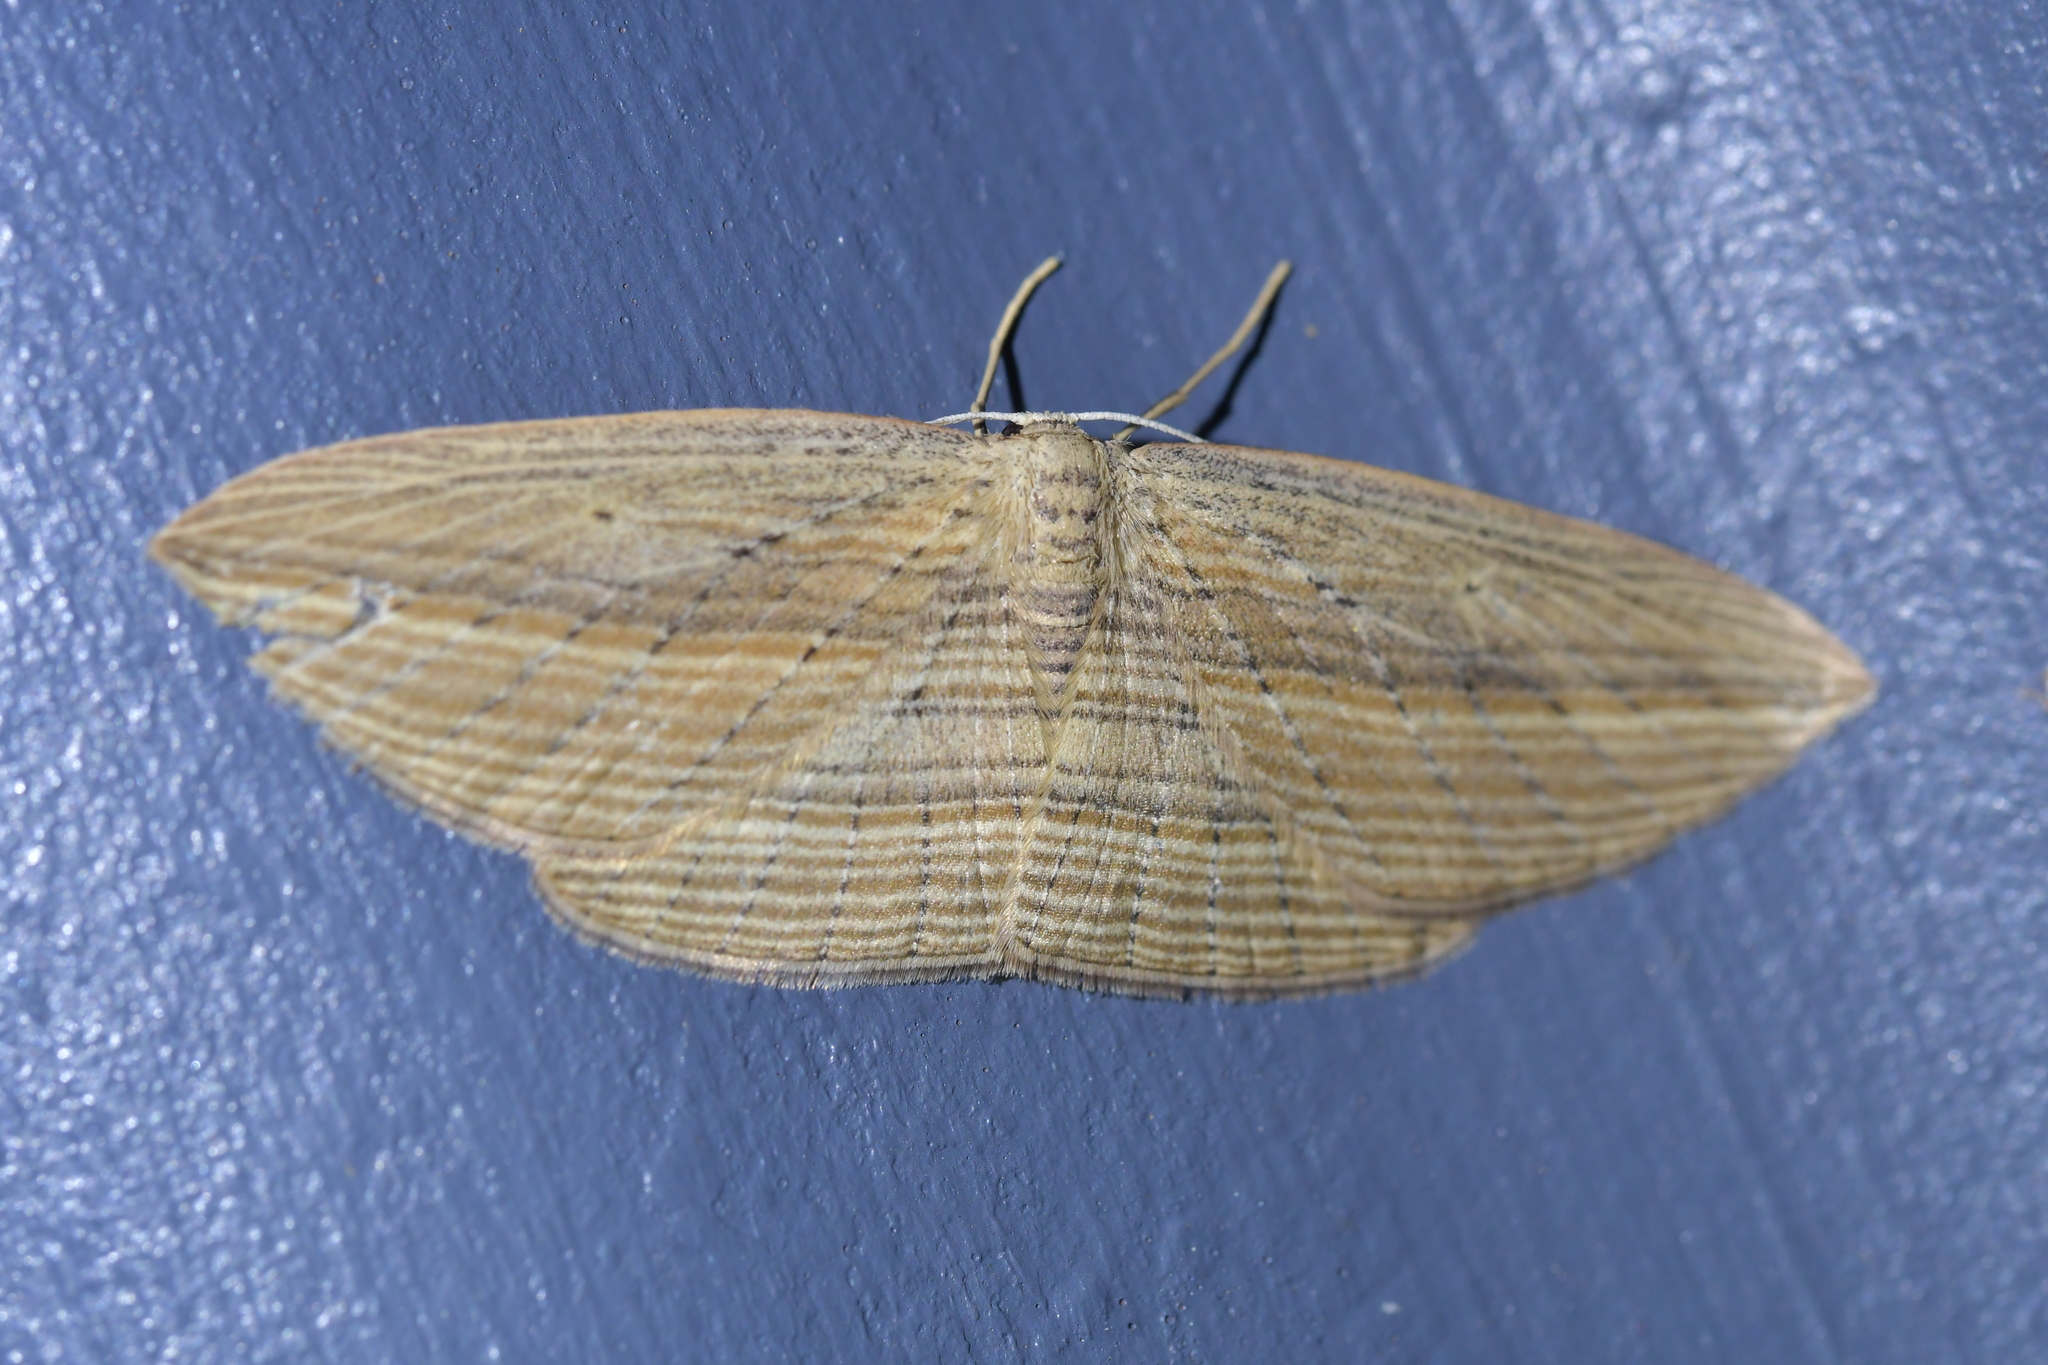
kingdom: Animalia
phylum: Arthropoda
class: Insecta
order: Lepidoptera
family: Geometridae
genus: Epiphryne
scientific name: Epiphryne verriculata
